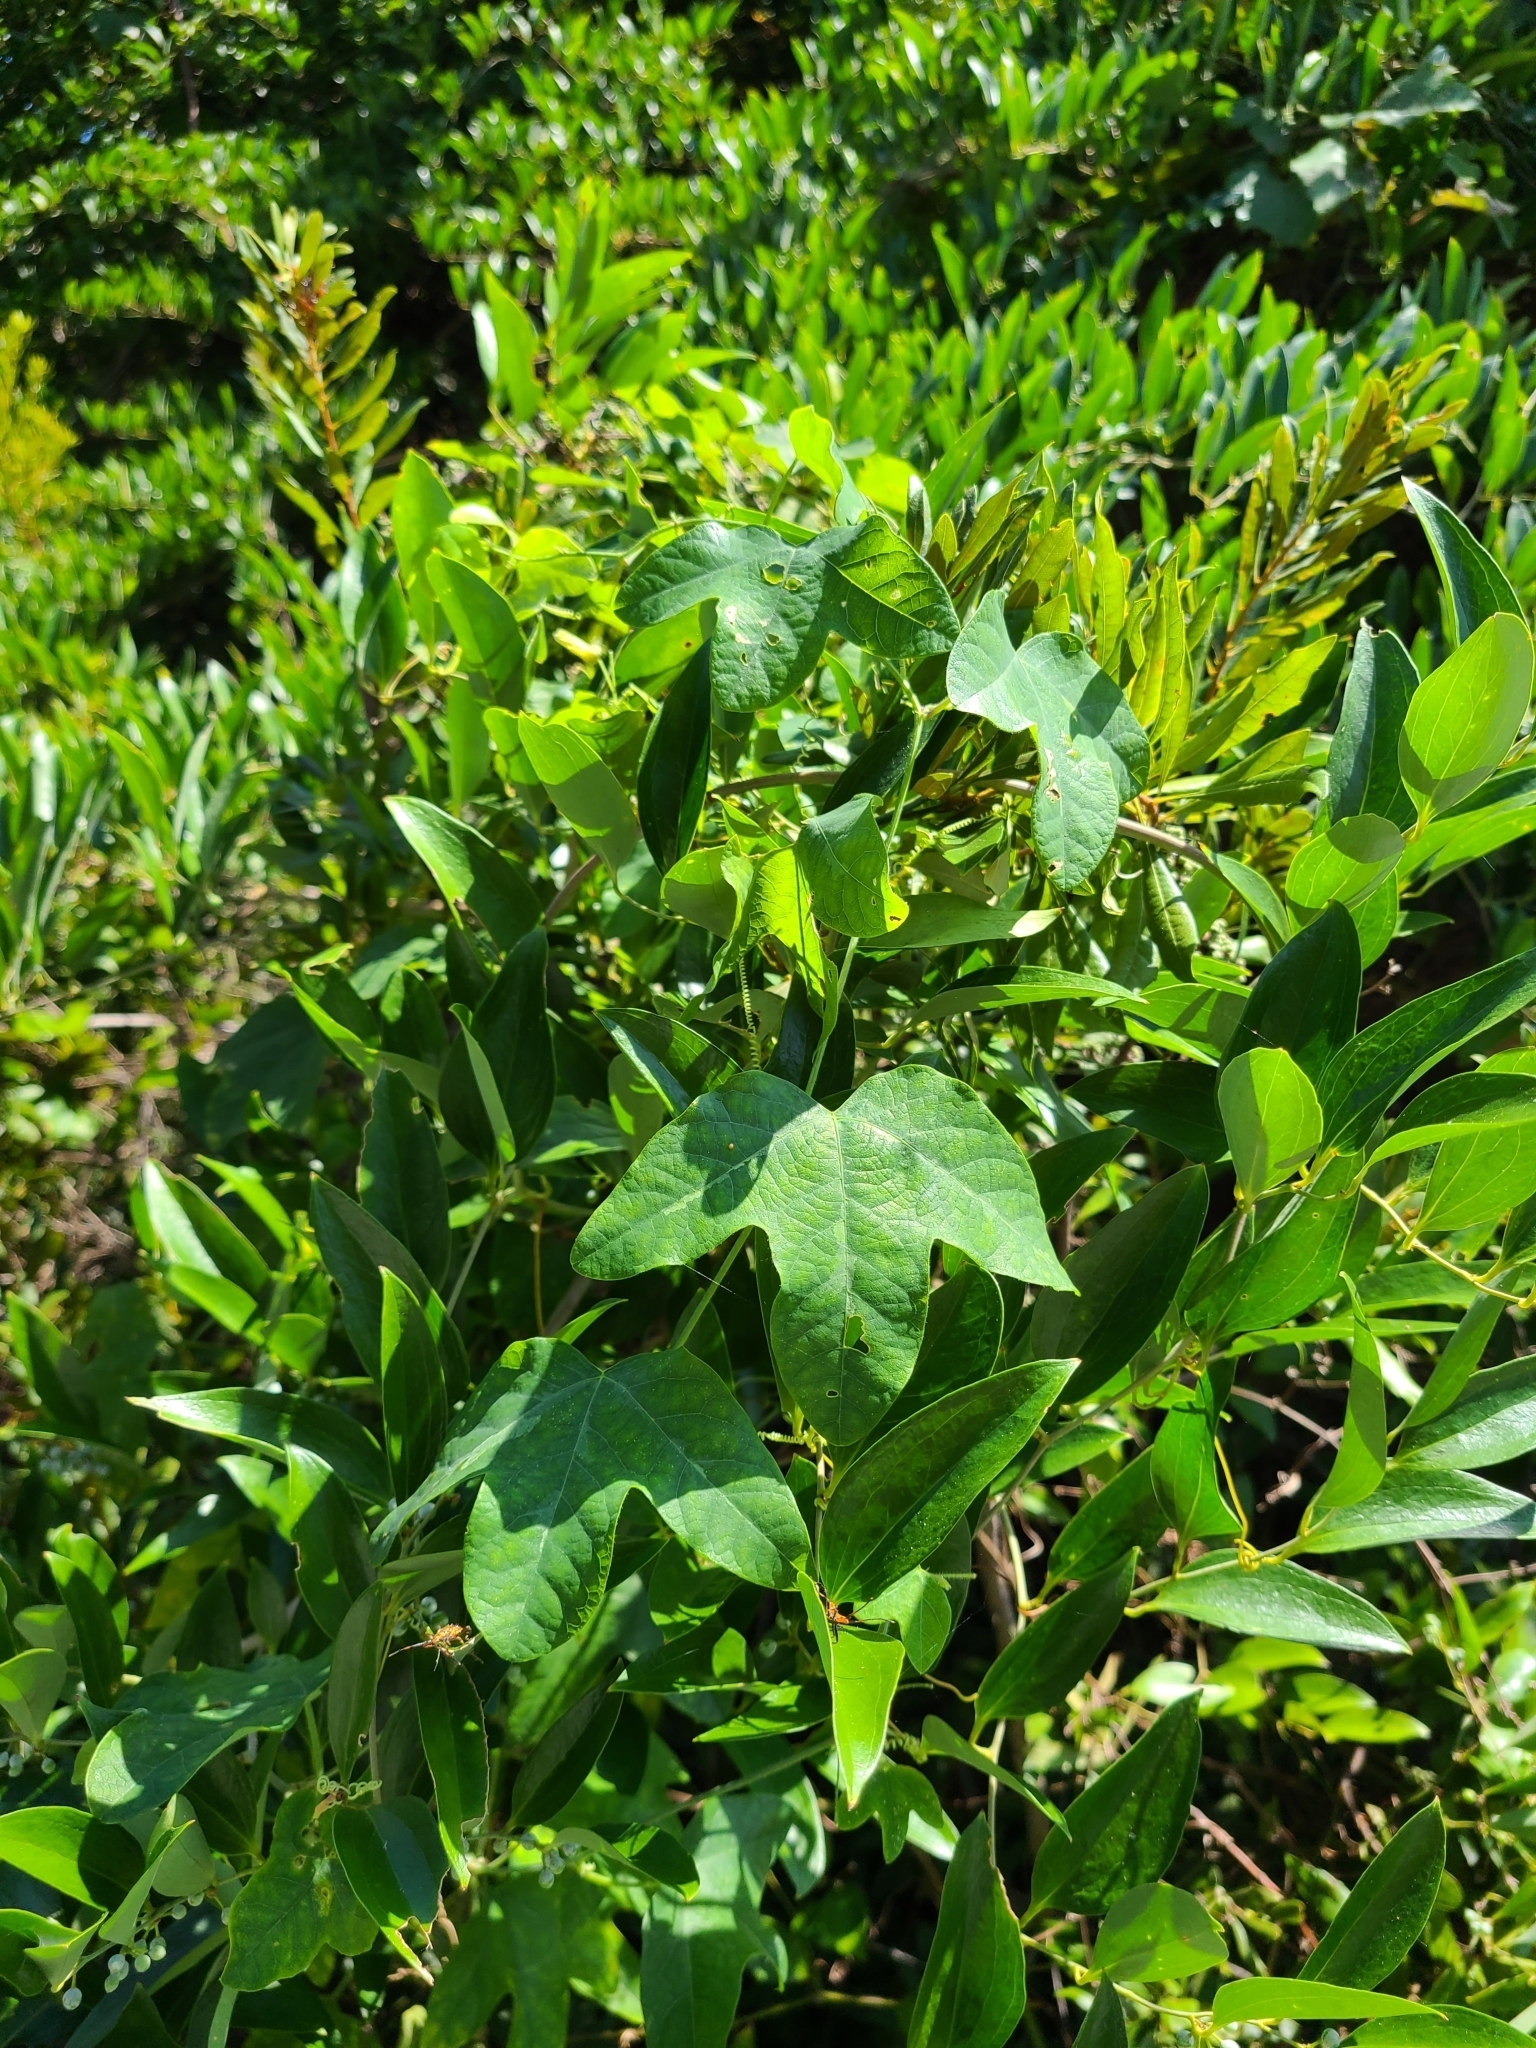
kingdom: Plantae
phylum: Tracheophyta
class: Magnoliopsida
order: Malpighiales
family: Passifloraceae
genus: Passiflora
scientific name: Passiflora lutea
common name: Yellow passionflower
